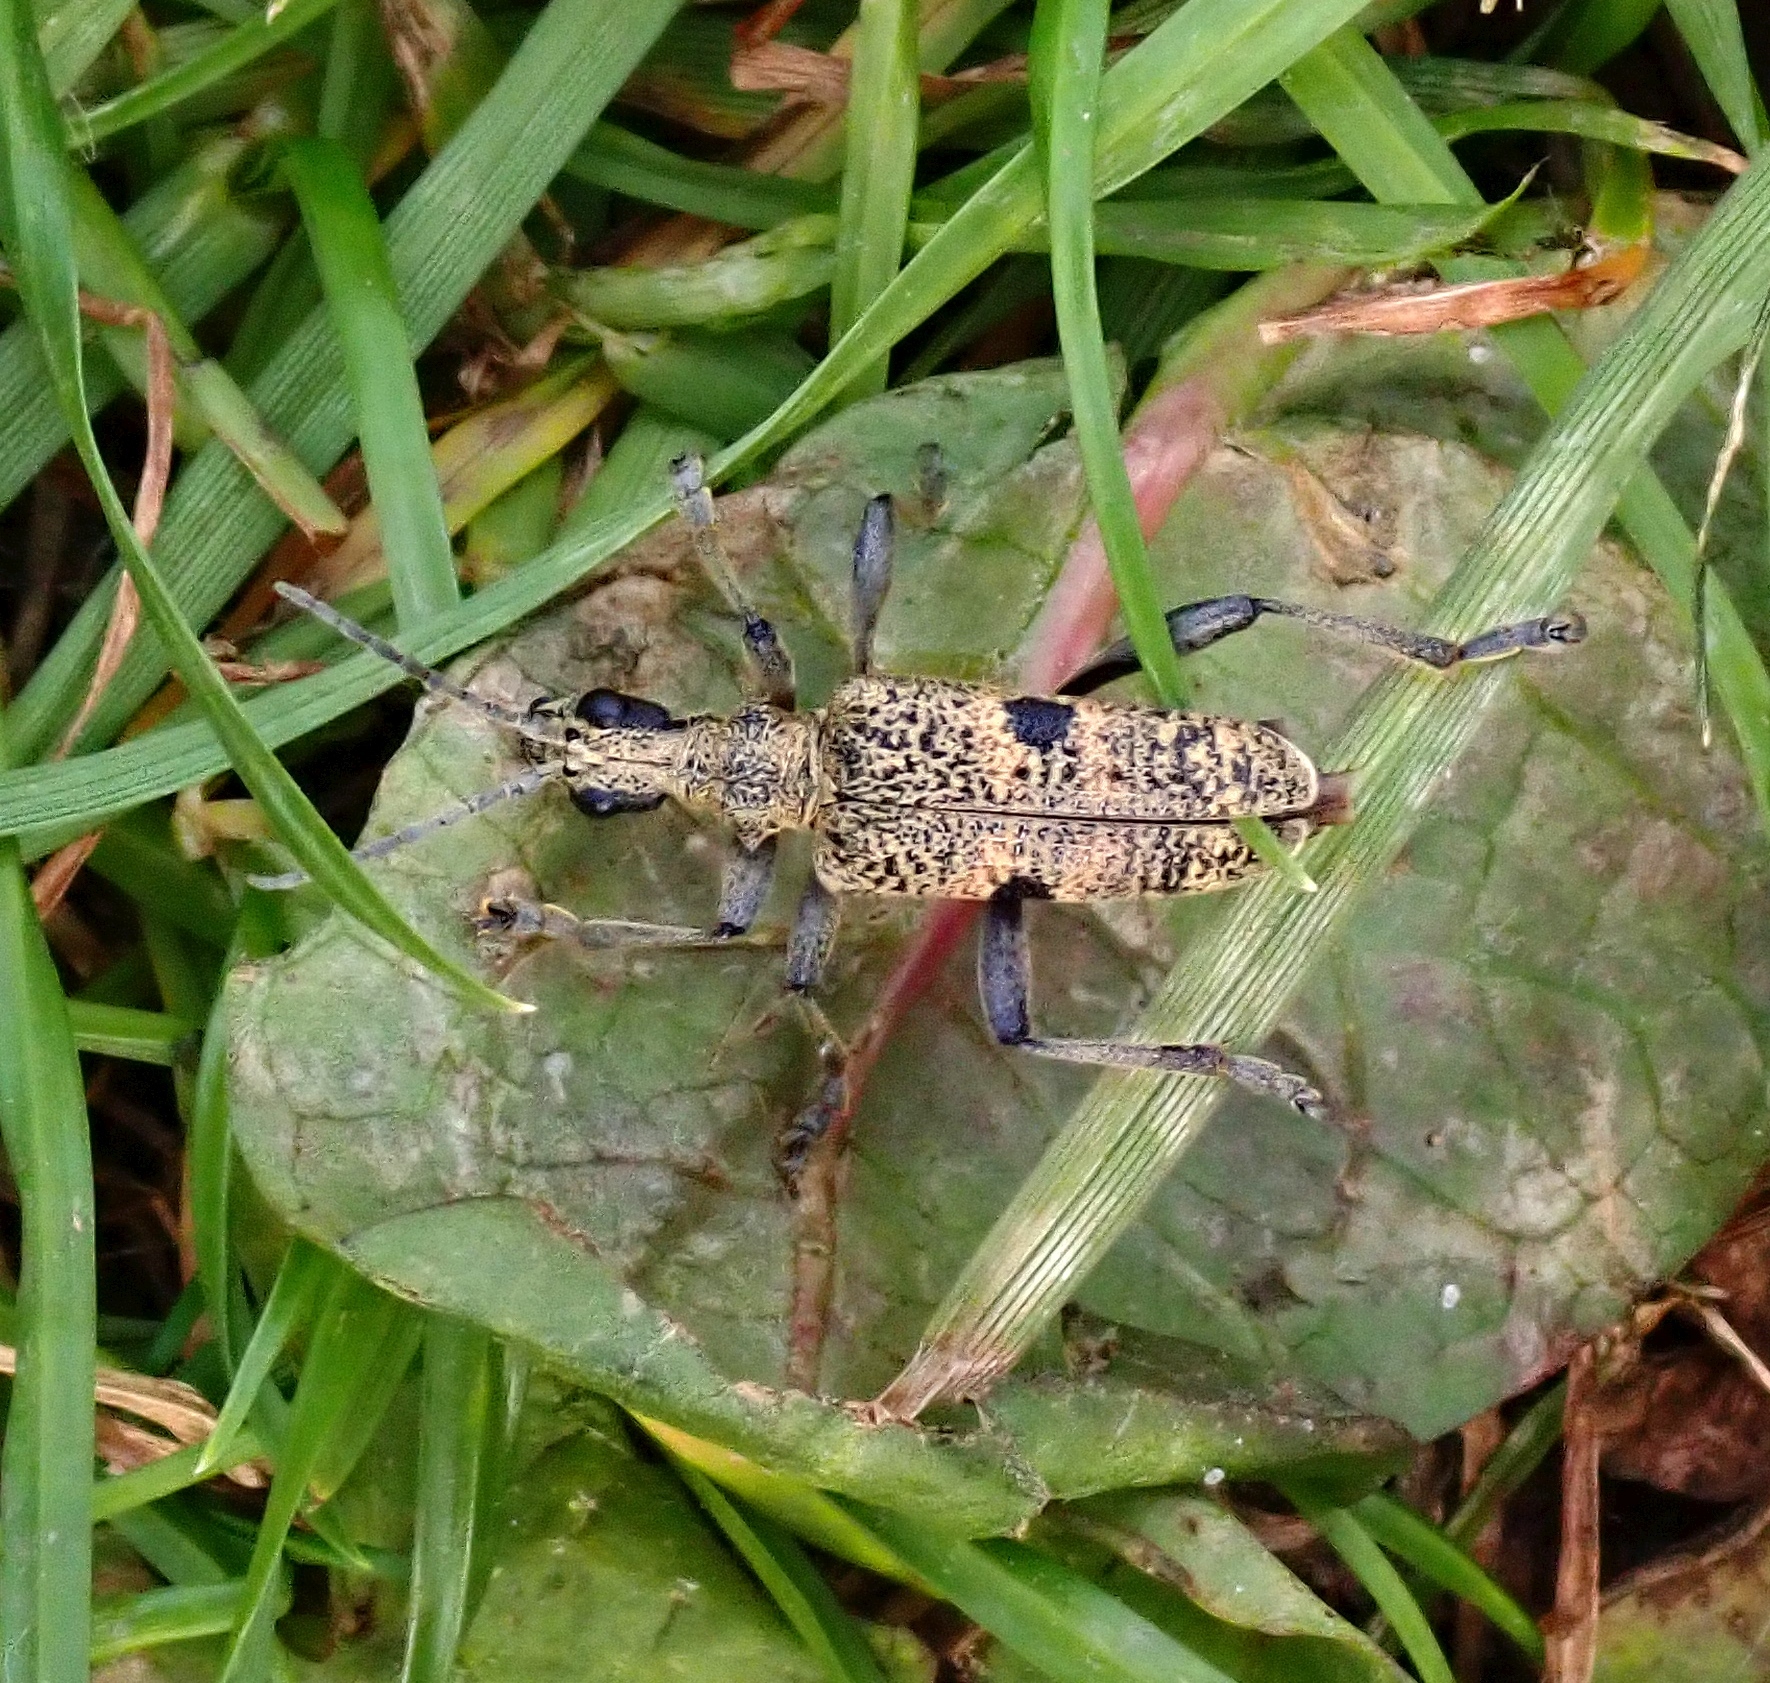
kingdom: Animalia
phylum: Arthropoda
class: Insecta
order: Coleoptera
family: Cerambycidae
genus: Rhagium
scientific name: Rhagium mordax
